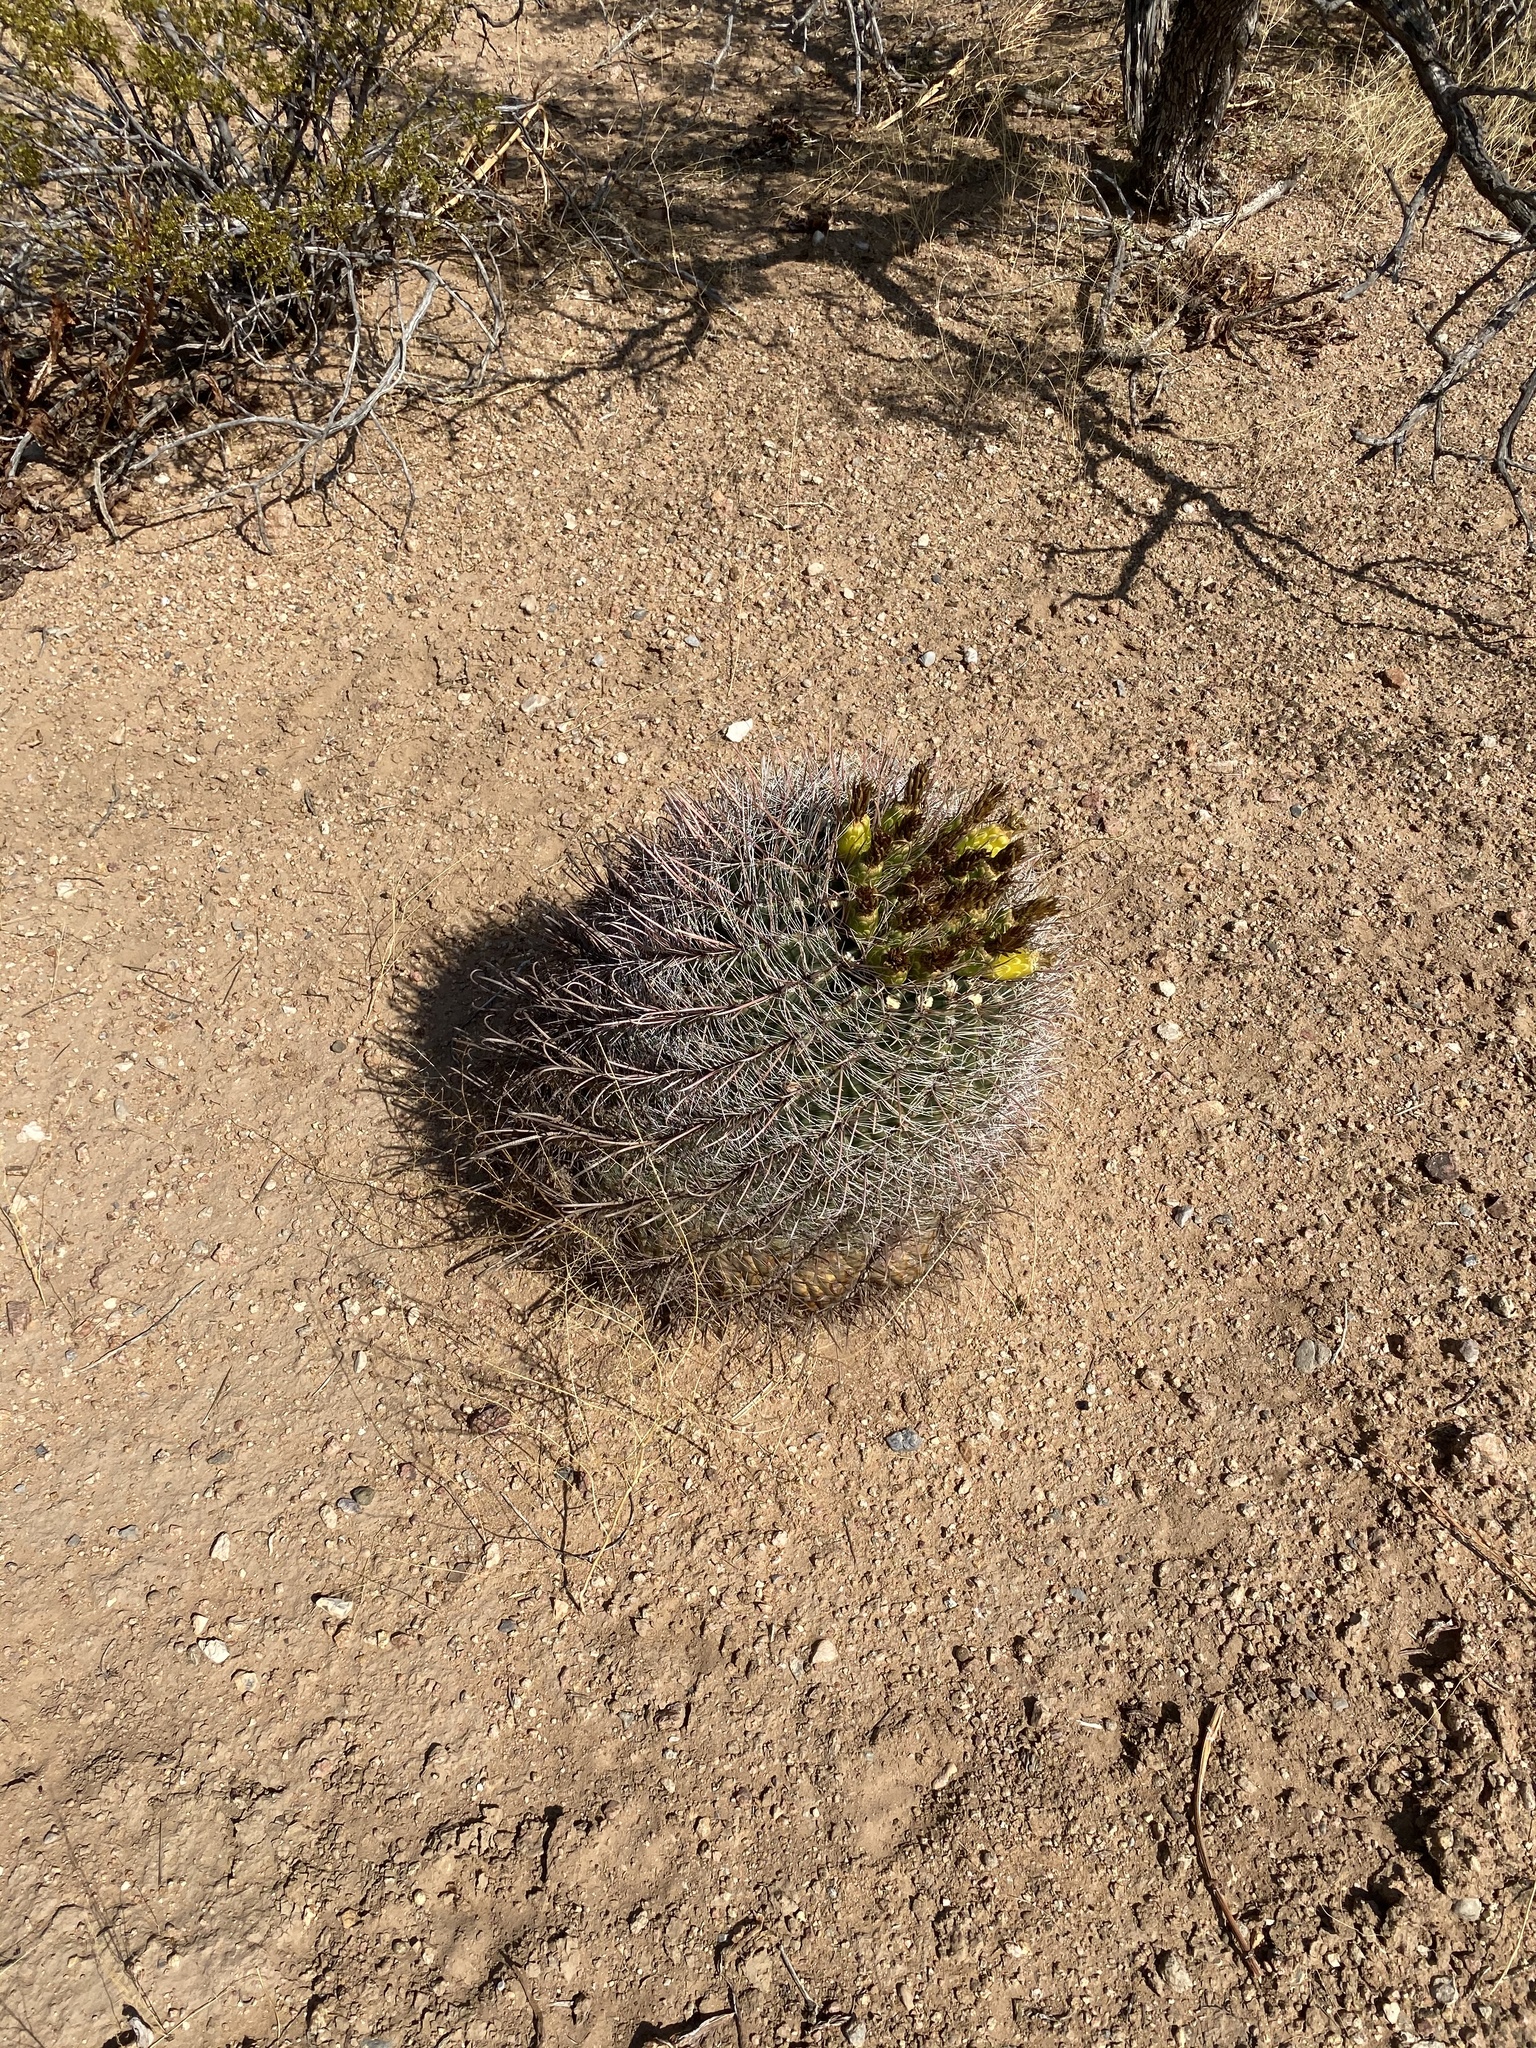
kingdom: Plantae
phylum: Tracheophyta
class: Magnoliopsida
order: Caryophyllales
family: Cactaceae
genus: Ferocactus
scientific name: Ferocactus wislizeni
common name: Candy barrel cactus
